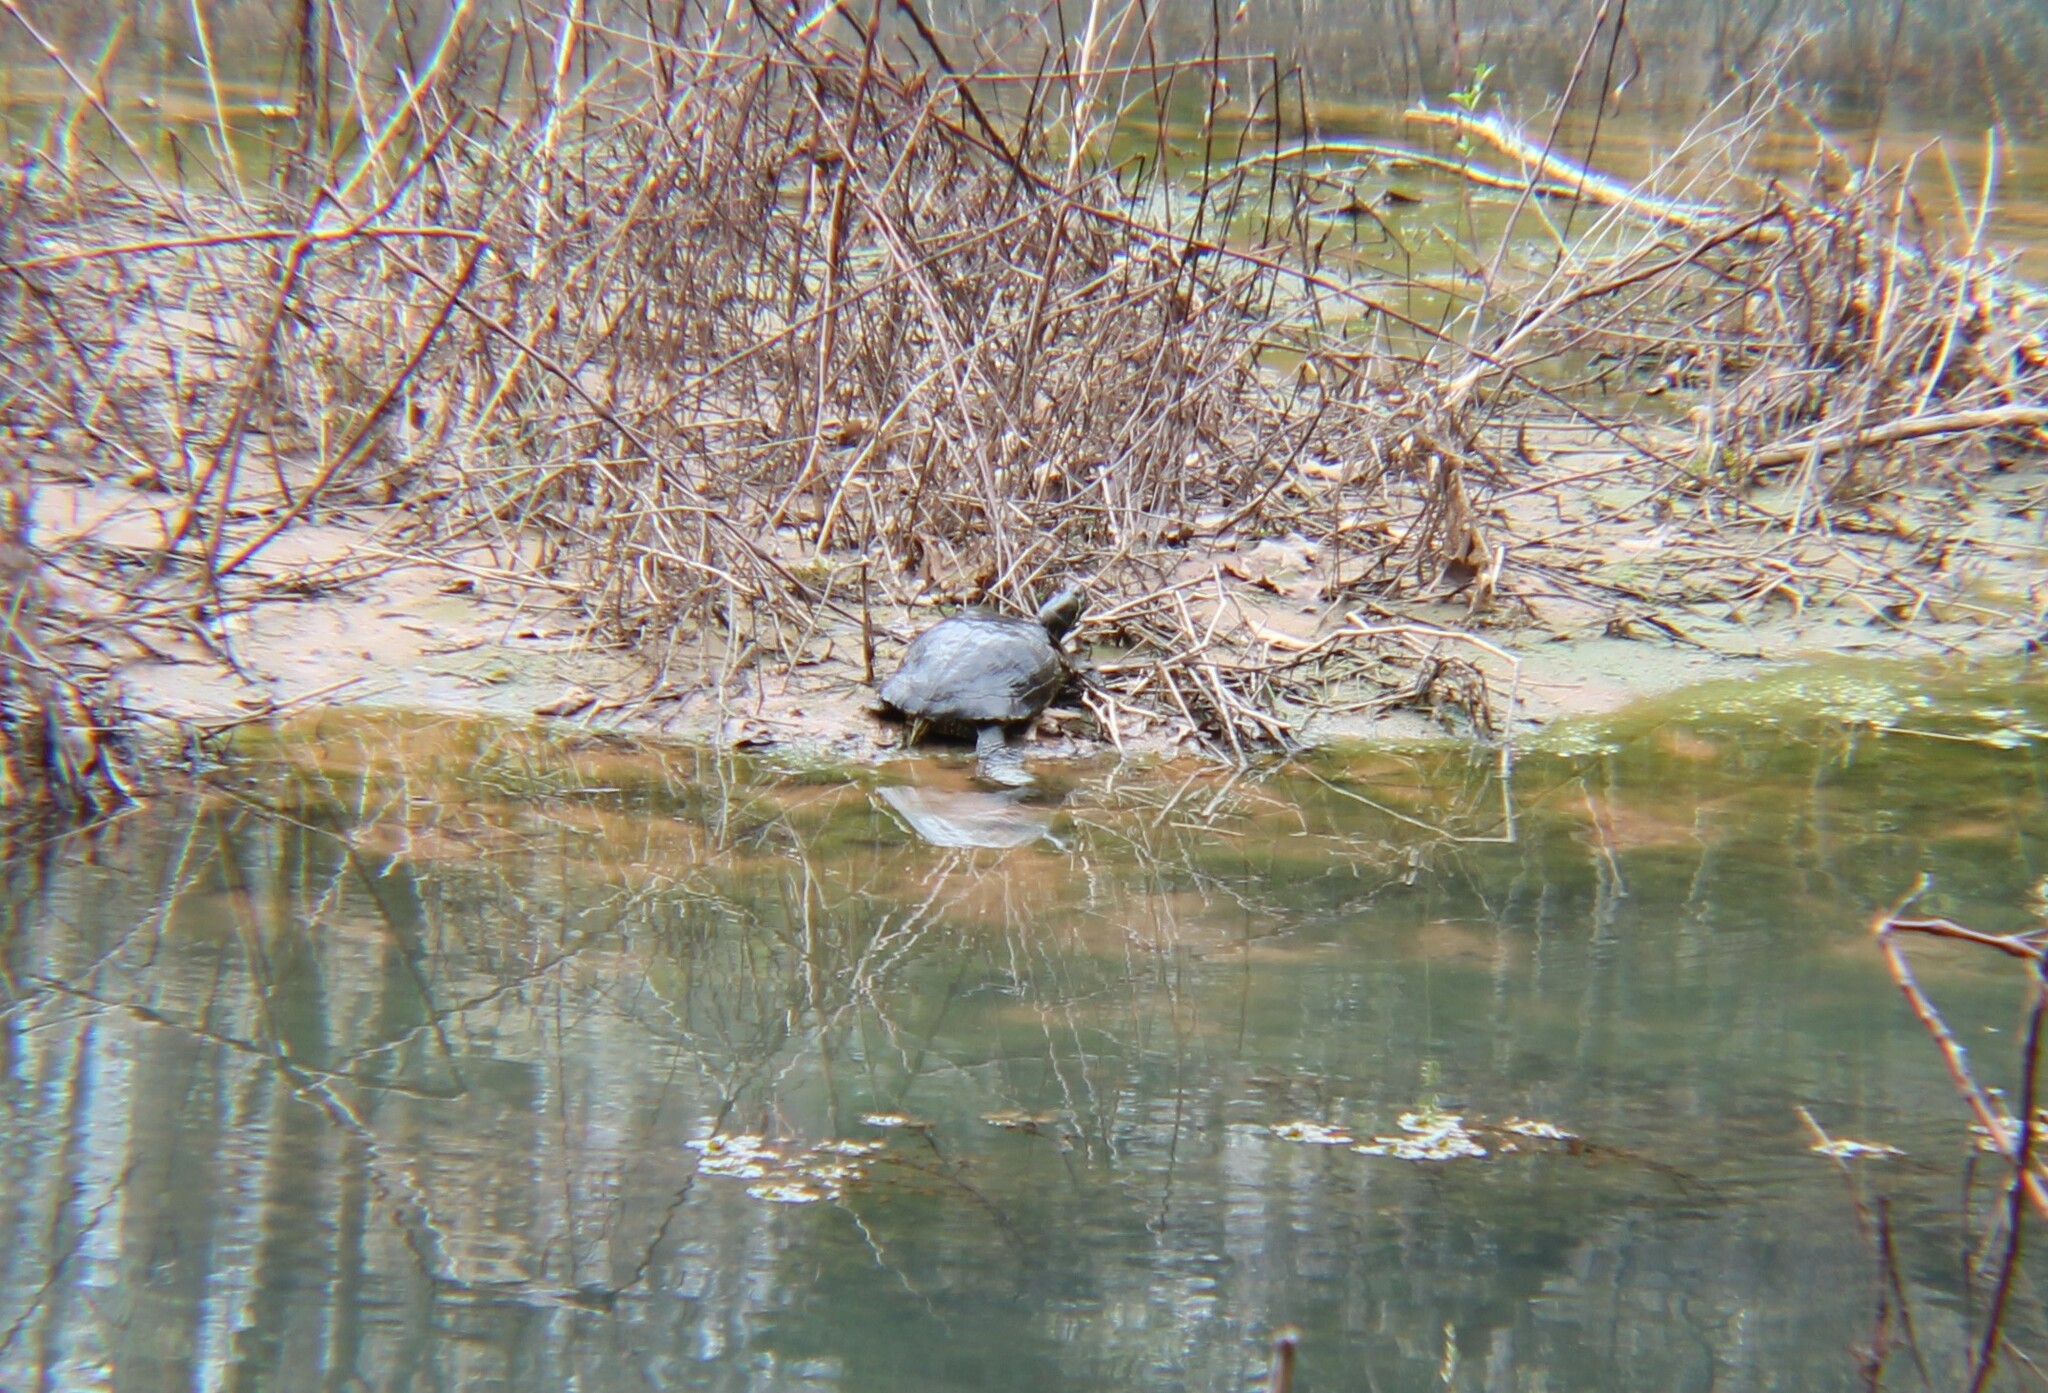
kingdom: Animalia
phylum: Chordata
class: Testudines
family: Emydidae
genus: Trachemys
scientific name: Trachemys scripta
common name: Slider
